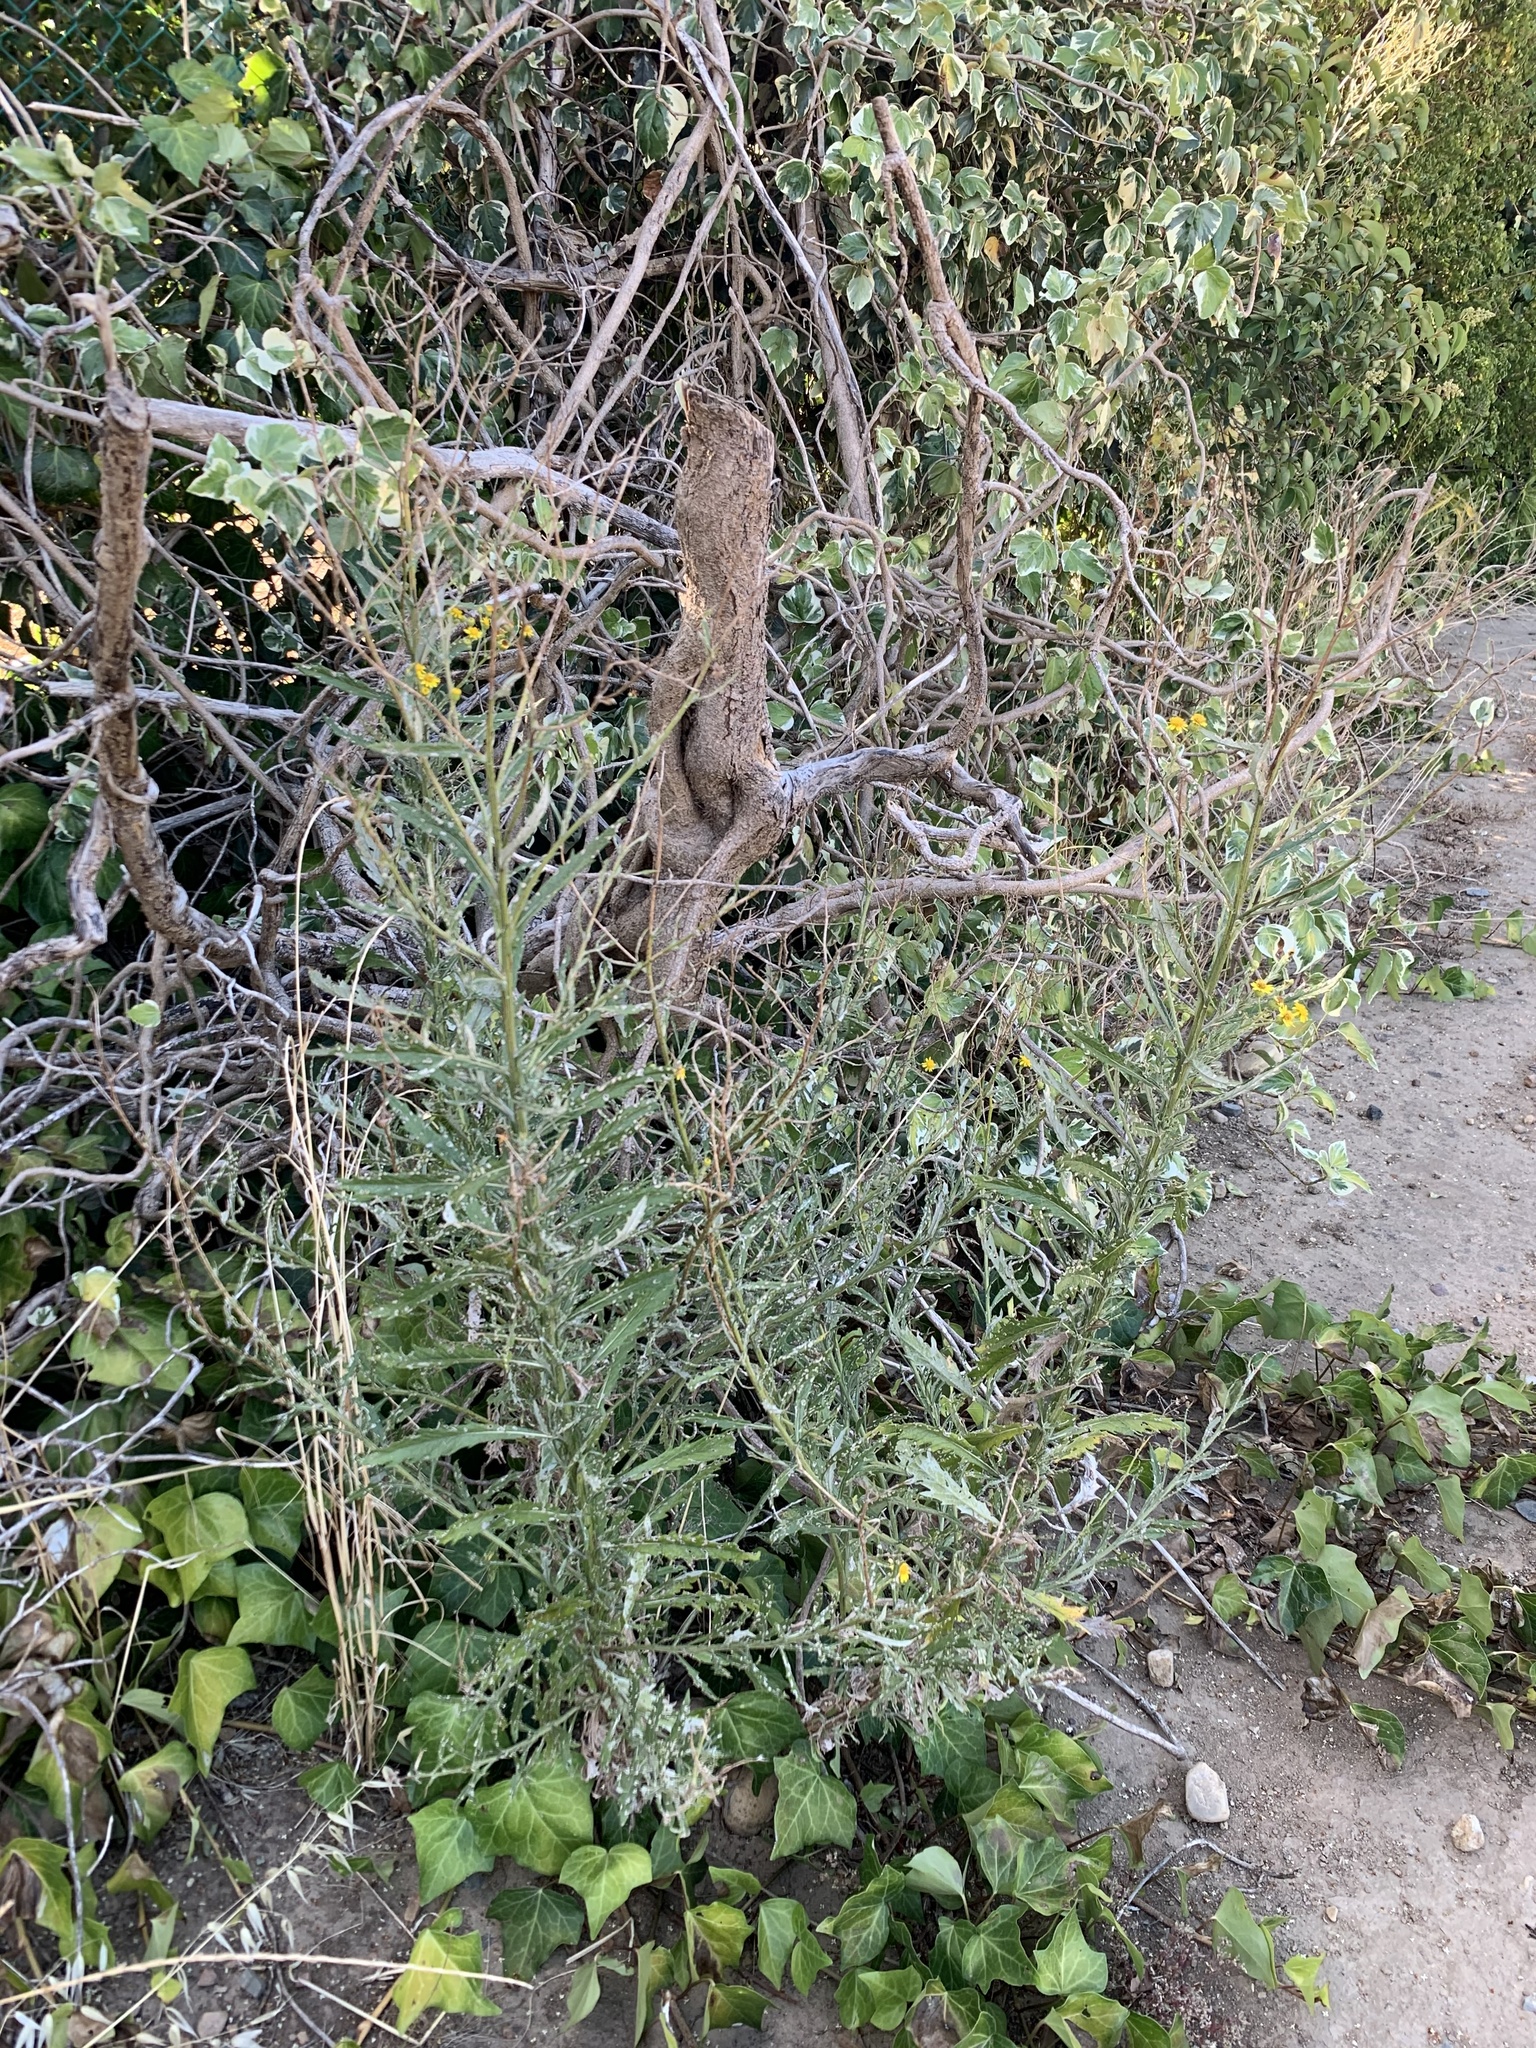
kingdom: Plantae
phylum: Tracheophyta
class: Magnoliopsida
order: Asterales
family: Asteraceae
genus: Senecio
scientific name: Senecio pterophorus
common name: Shoddy ragwort
